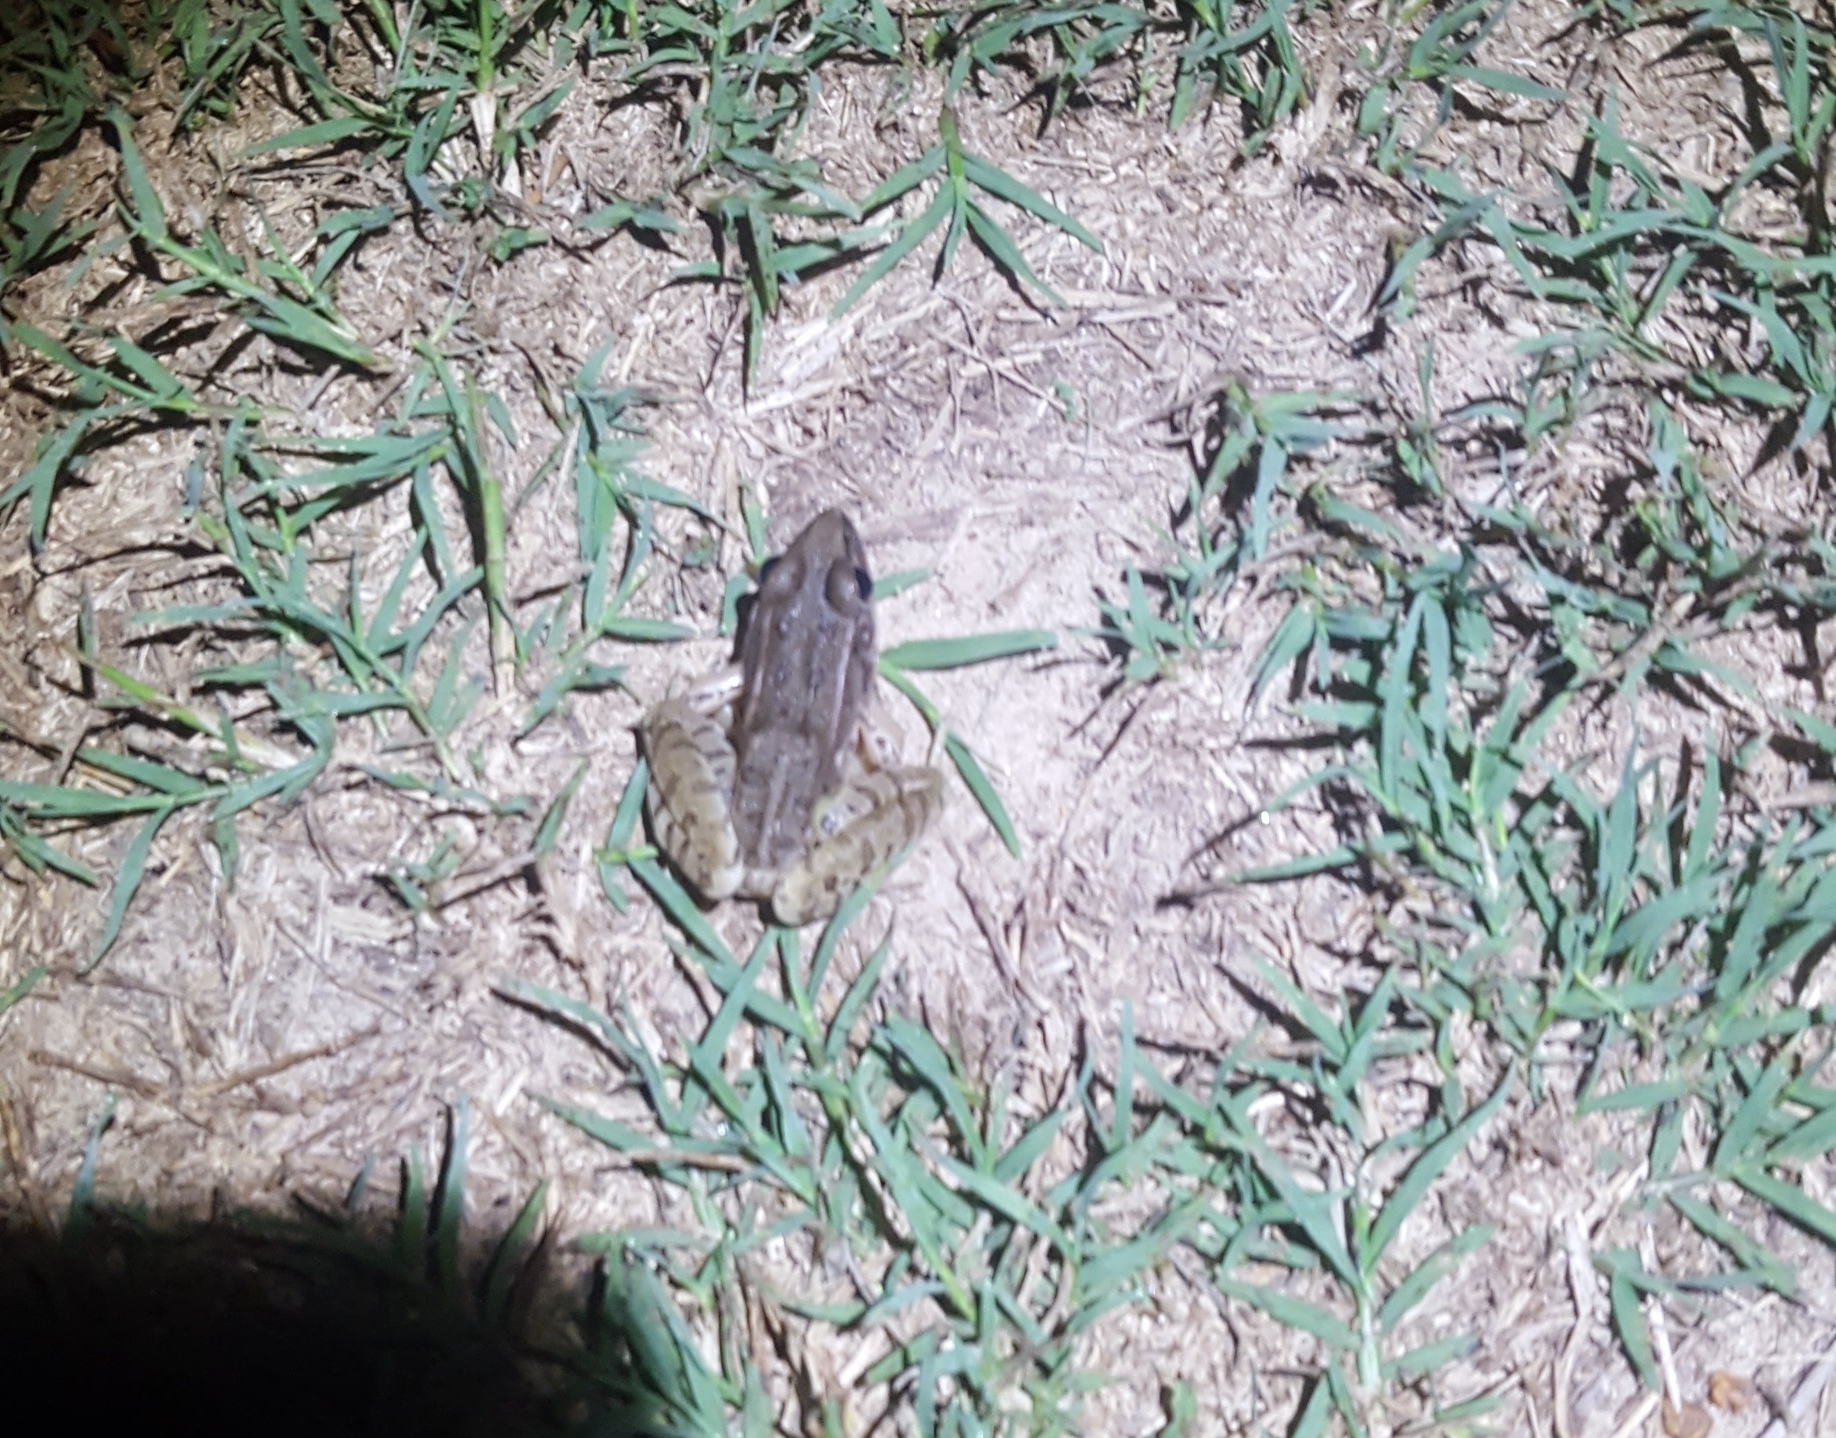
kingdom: Animalia
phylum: Chordata
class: Amphibia
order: Anura
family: Ranidae
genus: Lithobates
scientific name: Lithobates sphenocephalus
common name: Southern leopard frog
